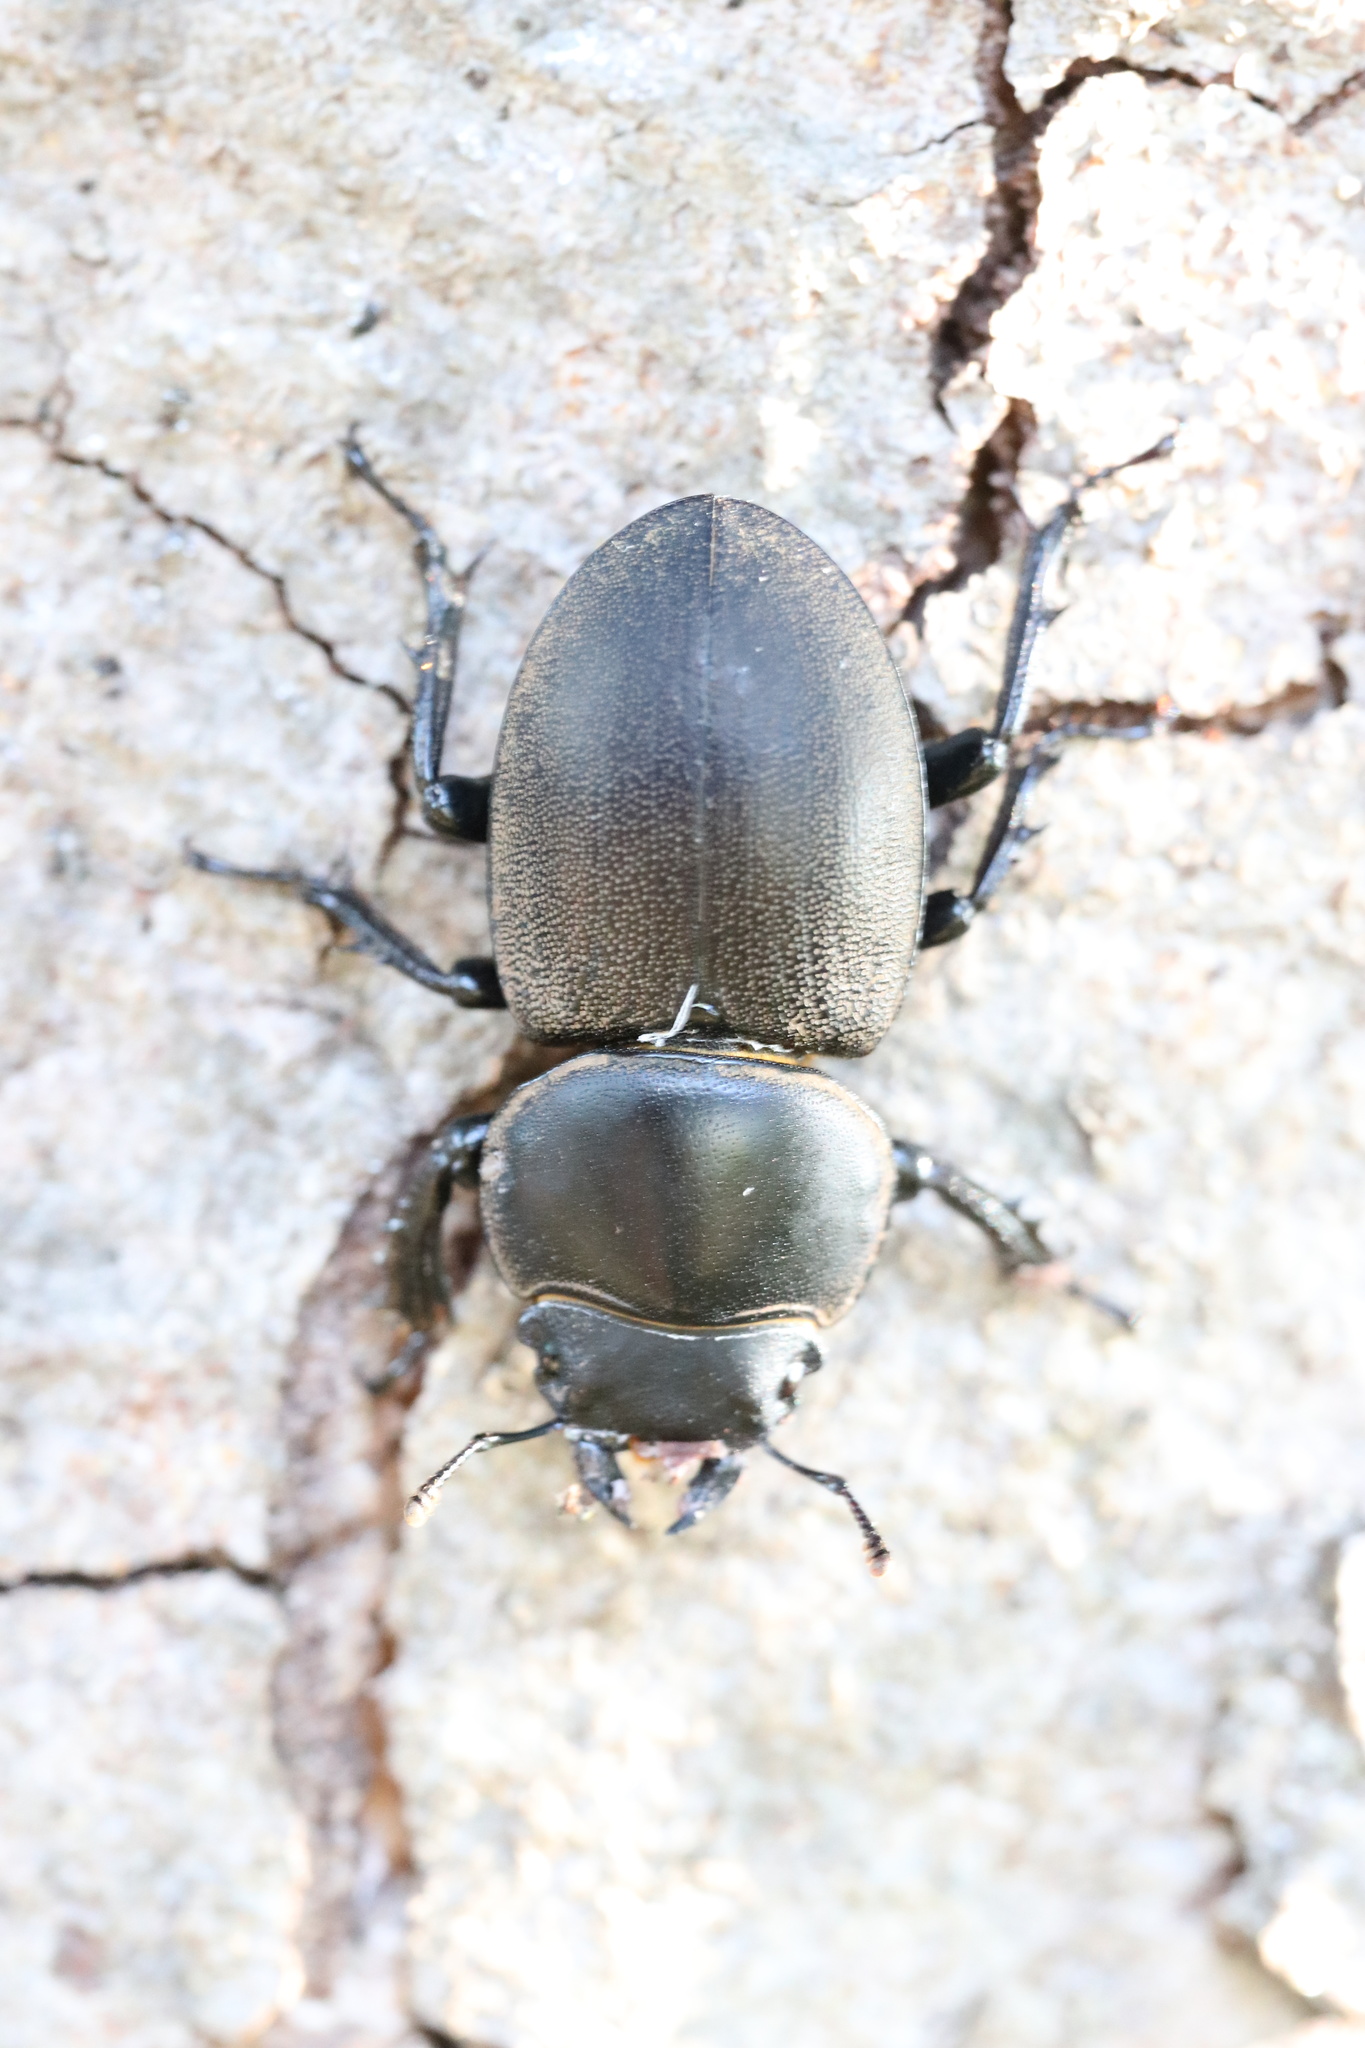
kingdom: Animalia
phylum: Arthropoda
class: Insecta
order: Coleoptera
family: Lucanidae
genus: Apterodorcus
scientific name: Apterodorcus bacchus
